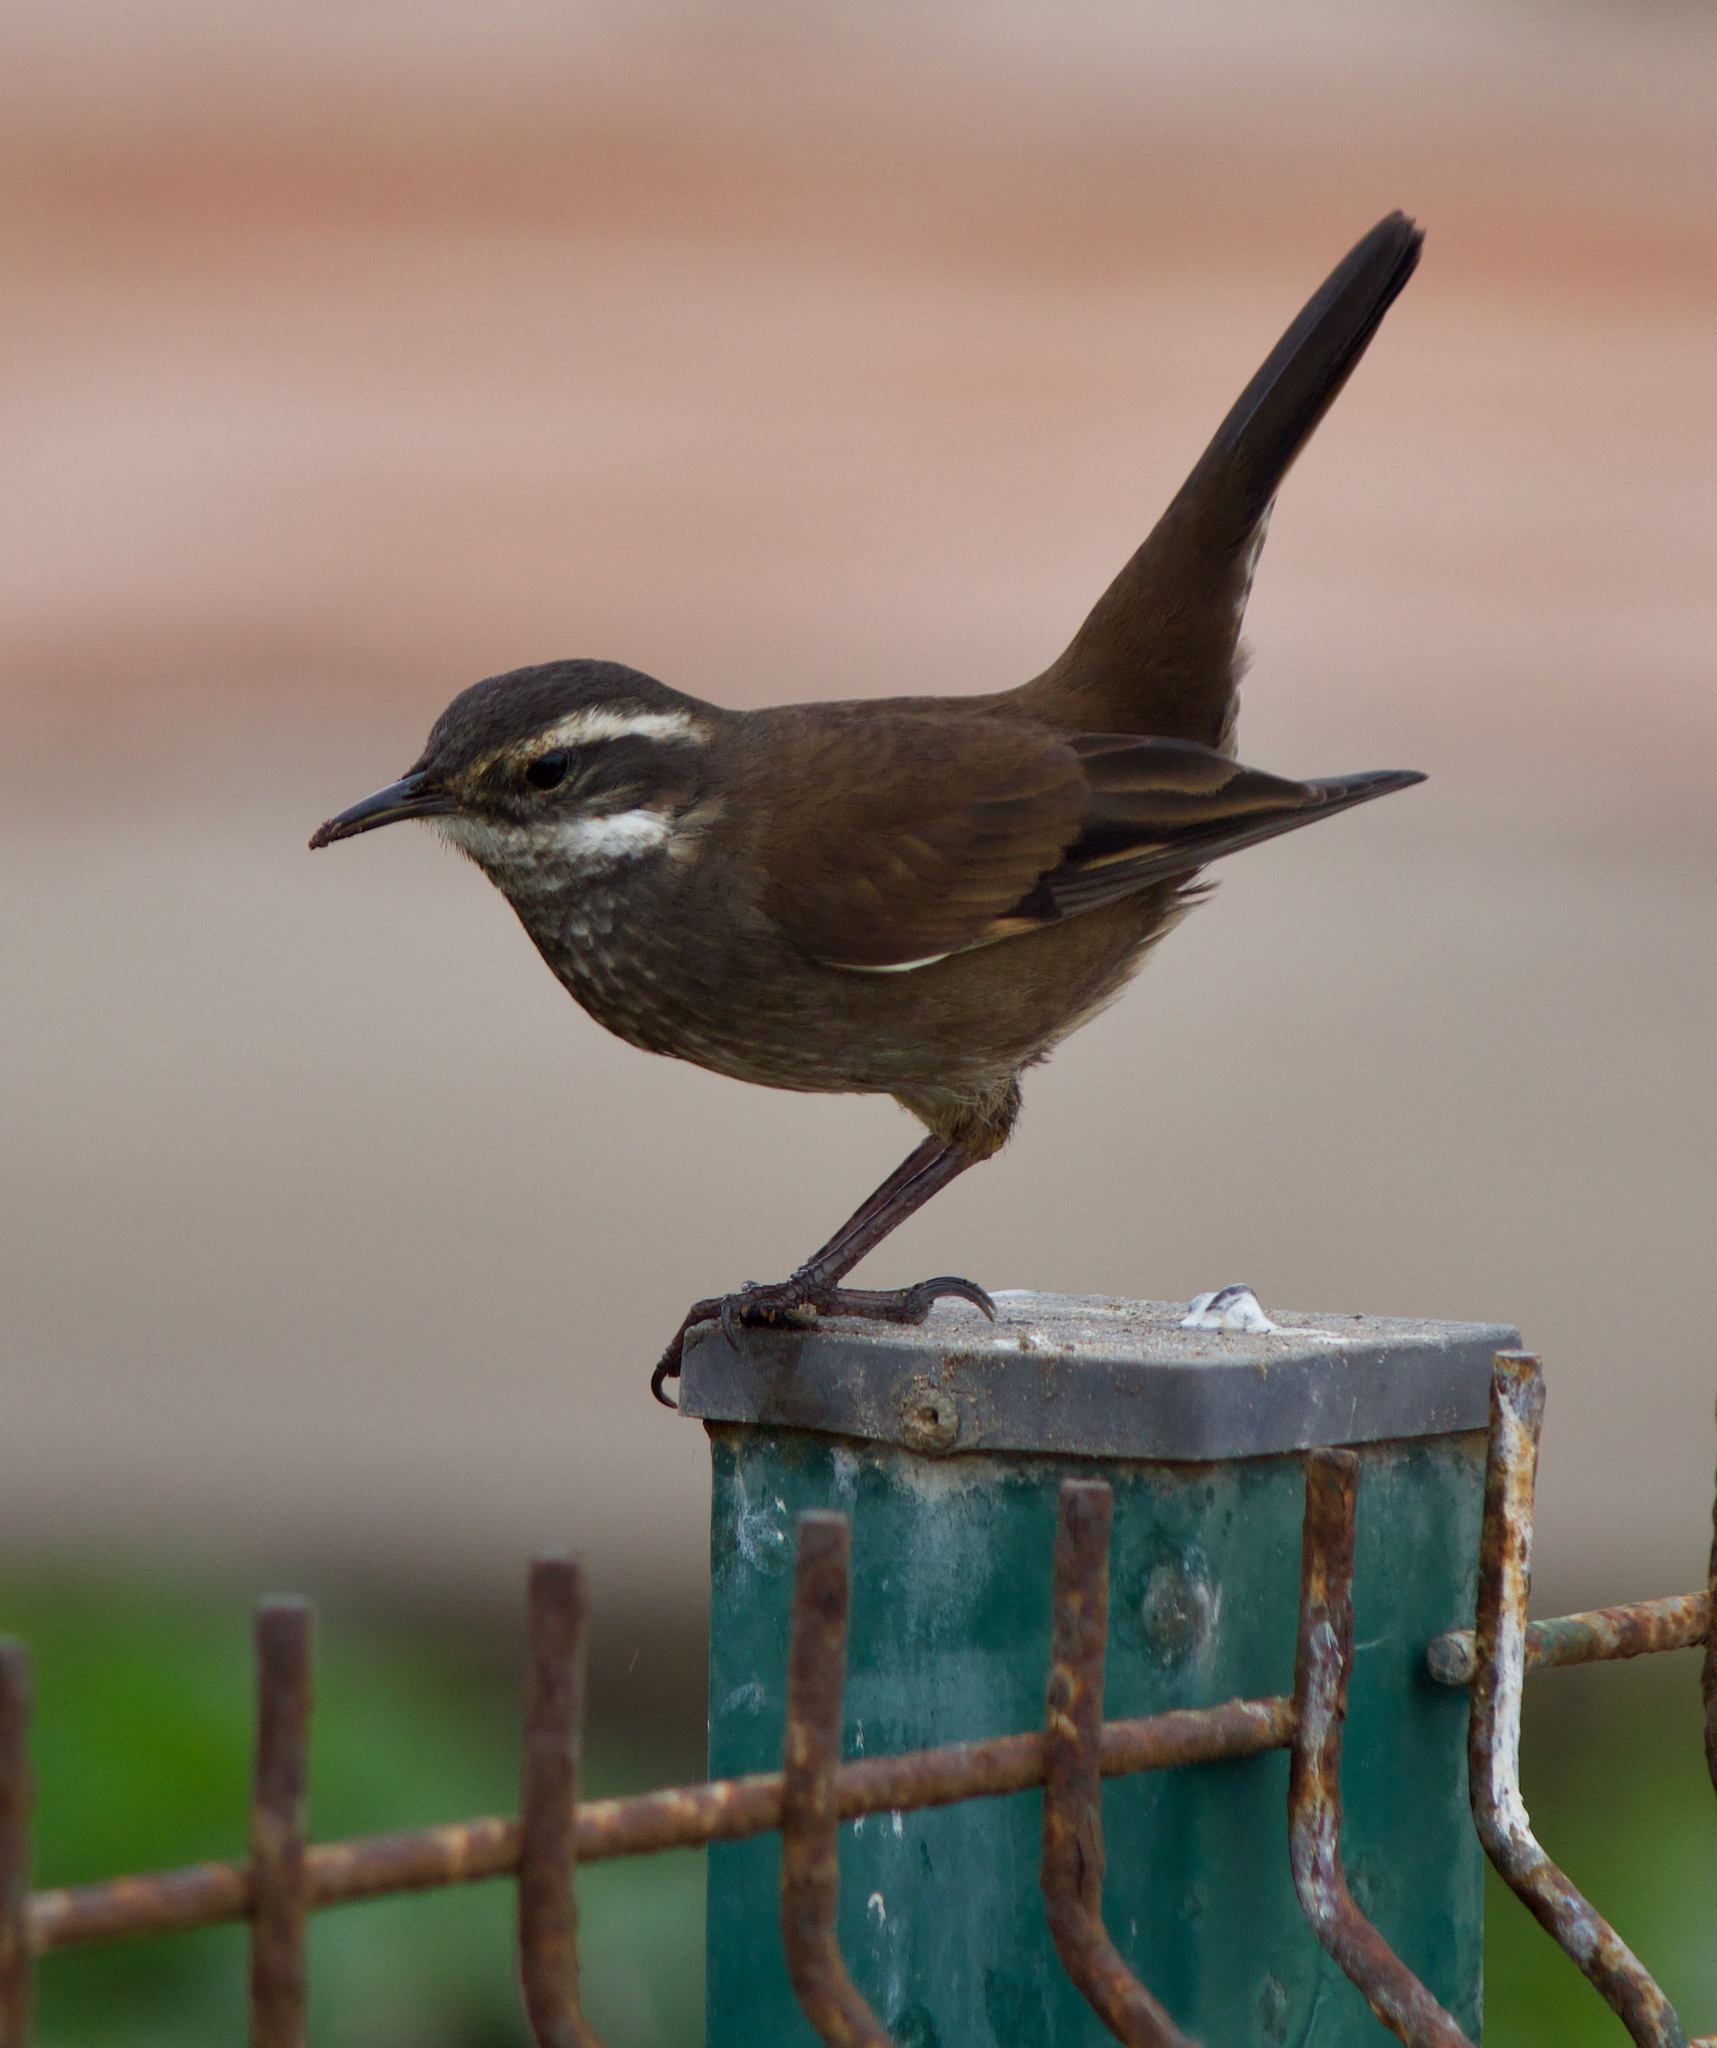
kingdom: Animalia
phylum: Chordata
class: Aves
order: Passeriformes
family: Furnariidae
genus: Cinclodes
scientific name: Cinclodes oustaleti
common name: Grey-flanked cinclodes
